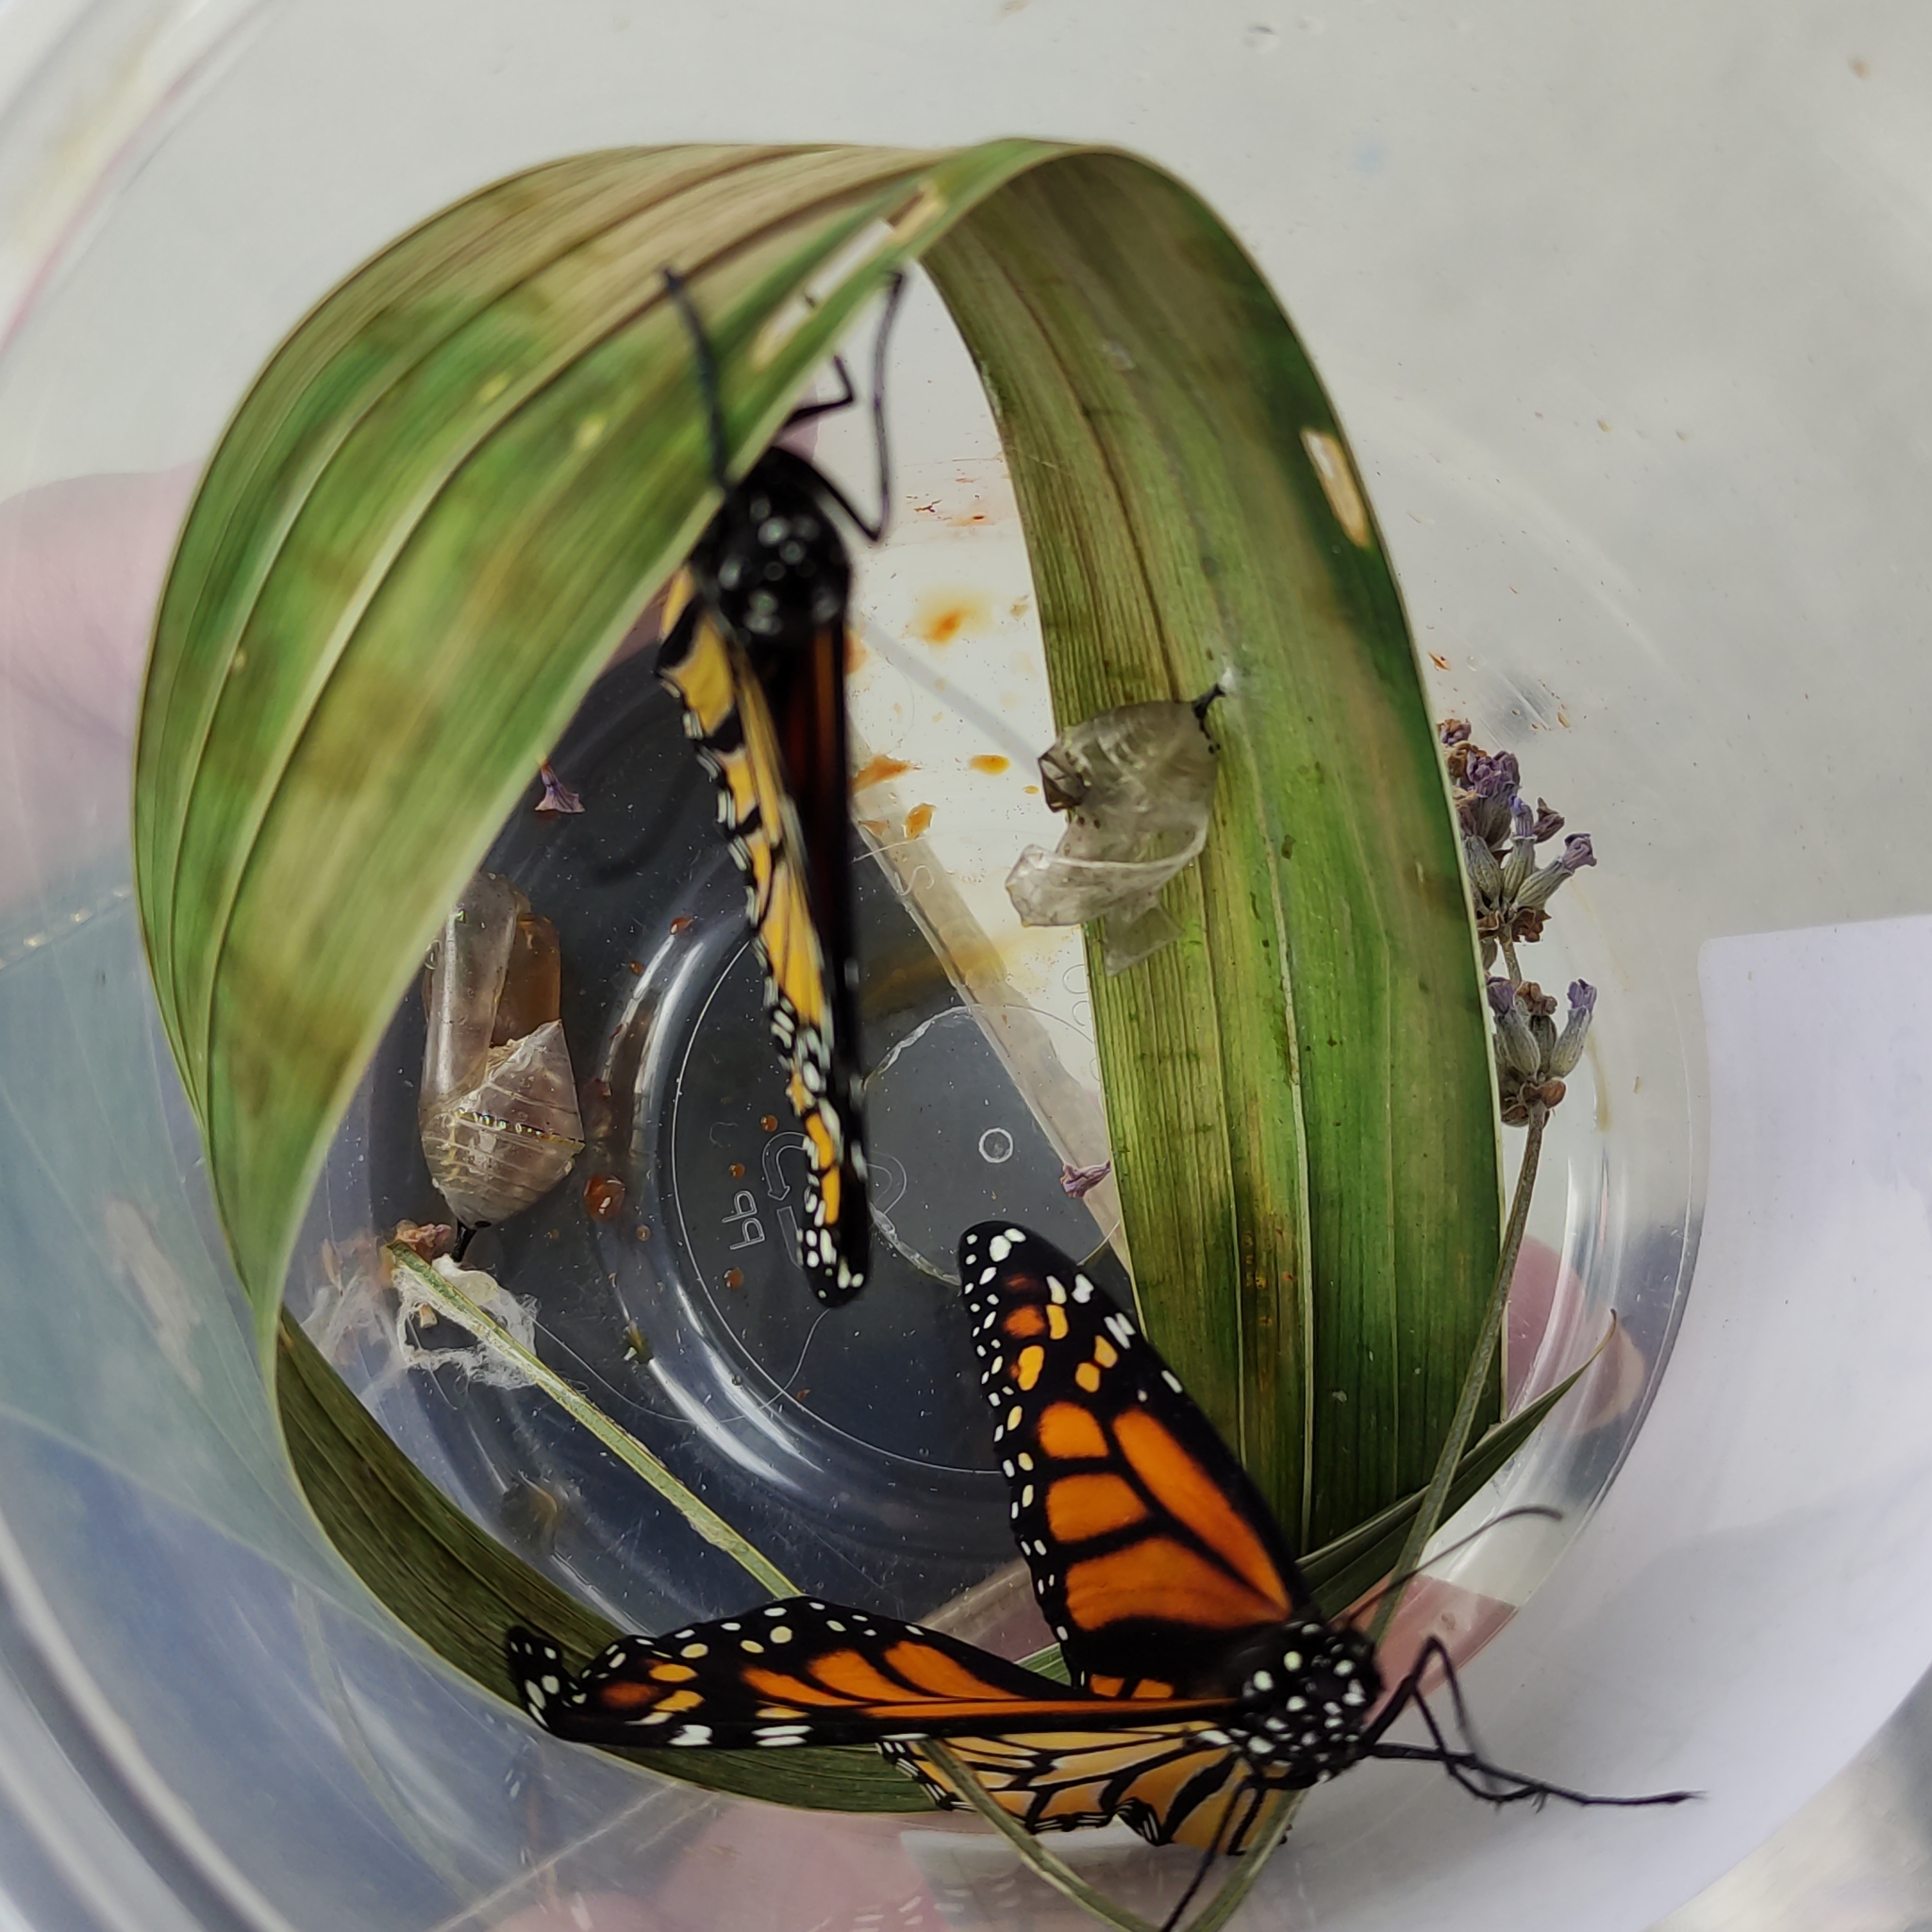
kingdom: Animalia
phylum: Arthropoda
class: Insecta
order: Lepidoptera
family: Nymphalidae
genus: Danaus
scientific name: Danaus plexippus
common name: Monarch
